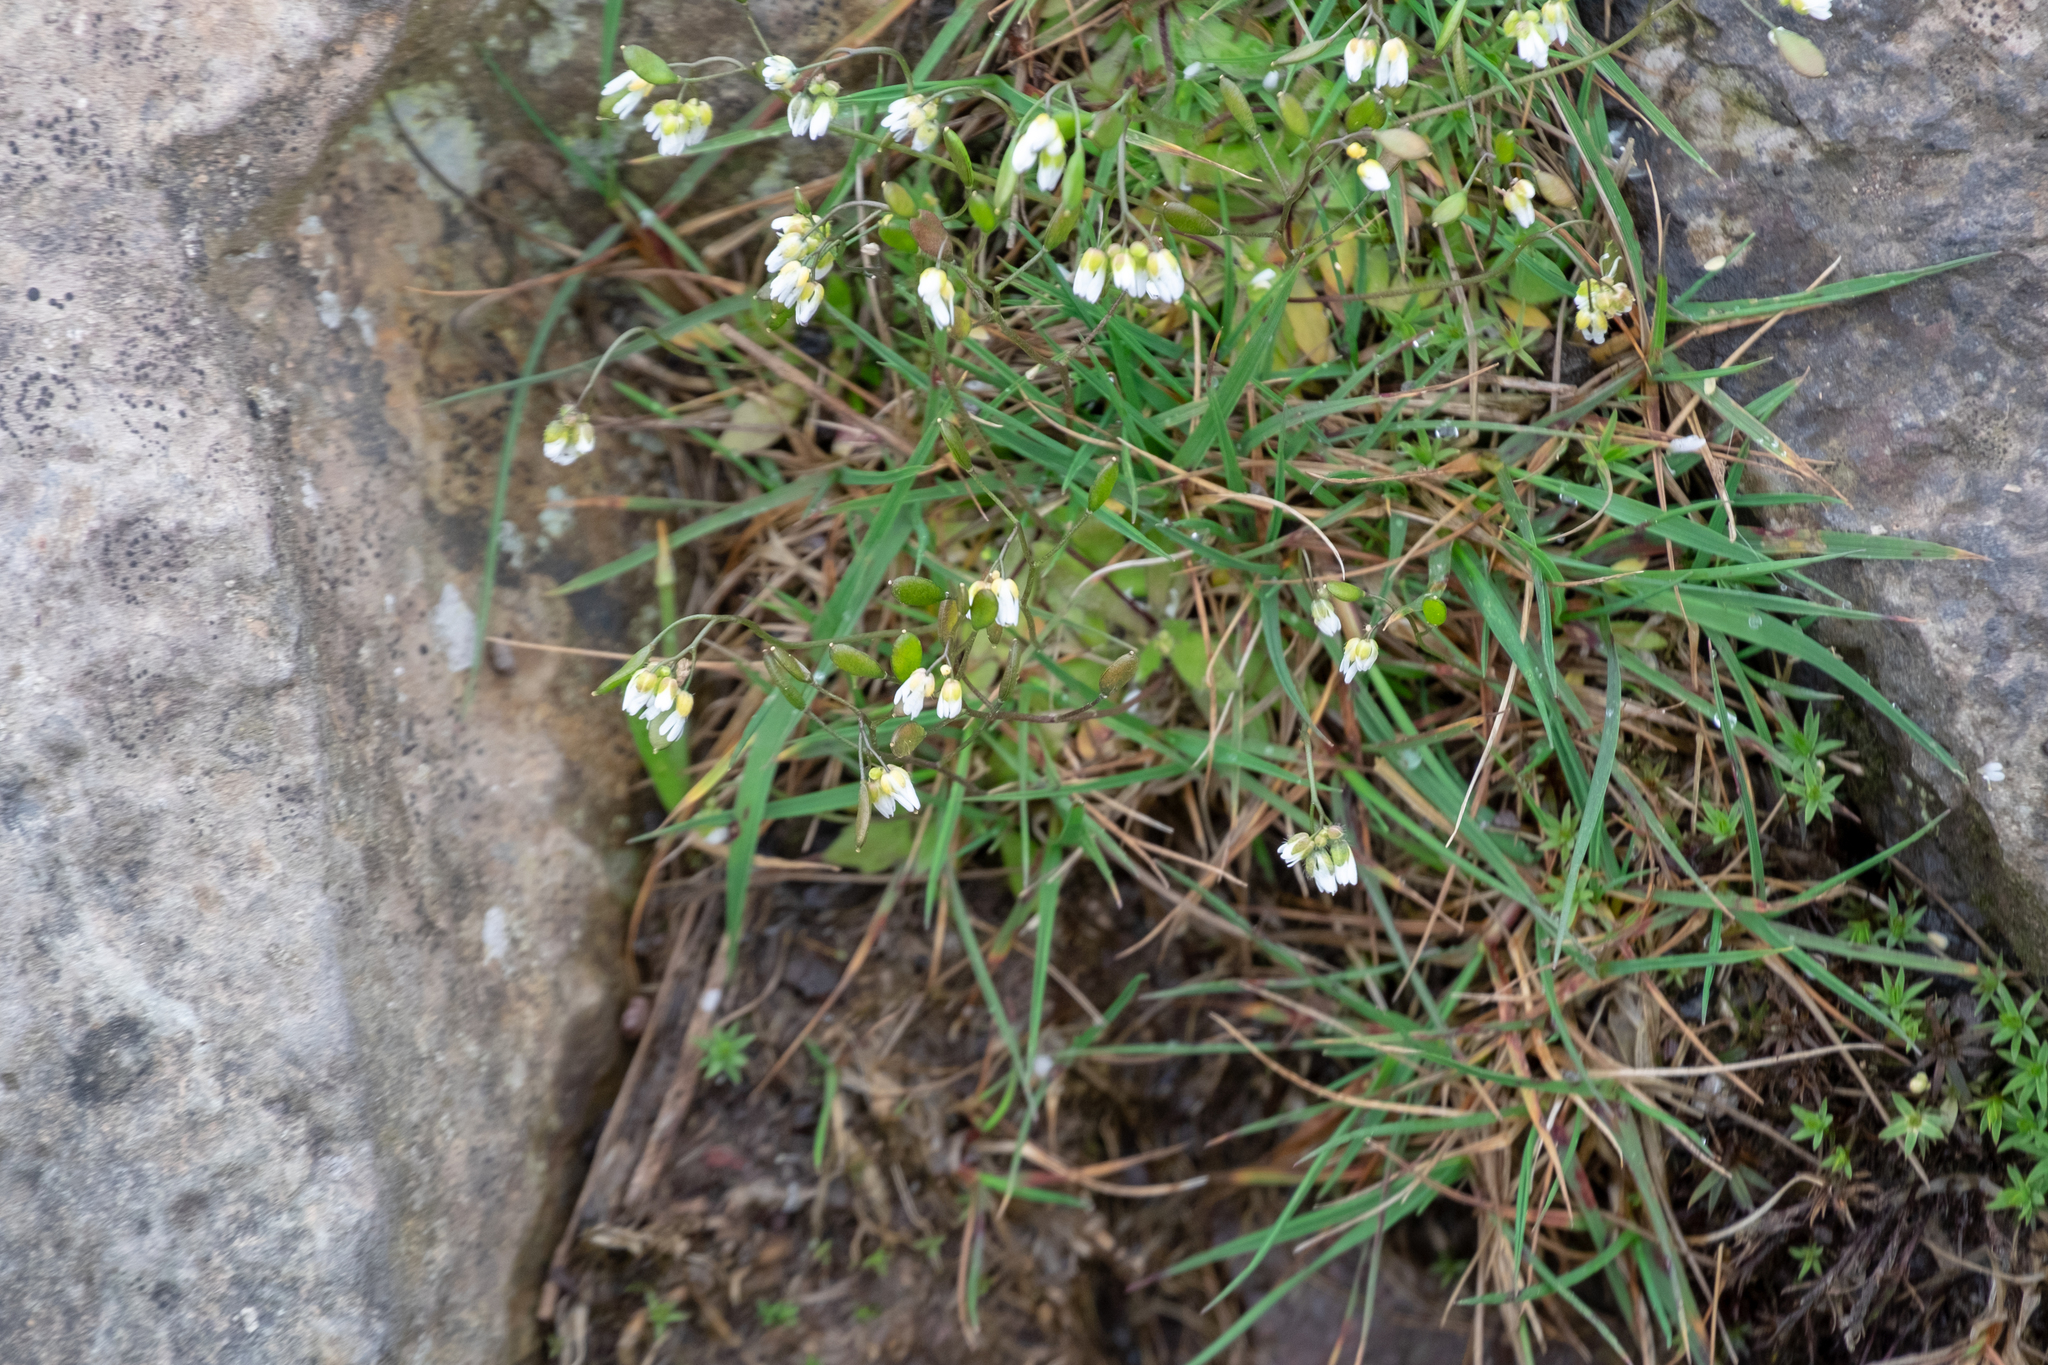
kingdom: Plantae
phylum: Tracheophyta
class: Magnoliopsida
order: Brassicales
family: Brassicaceae
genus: Draba
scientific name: Draba verna
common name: Spring draba
